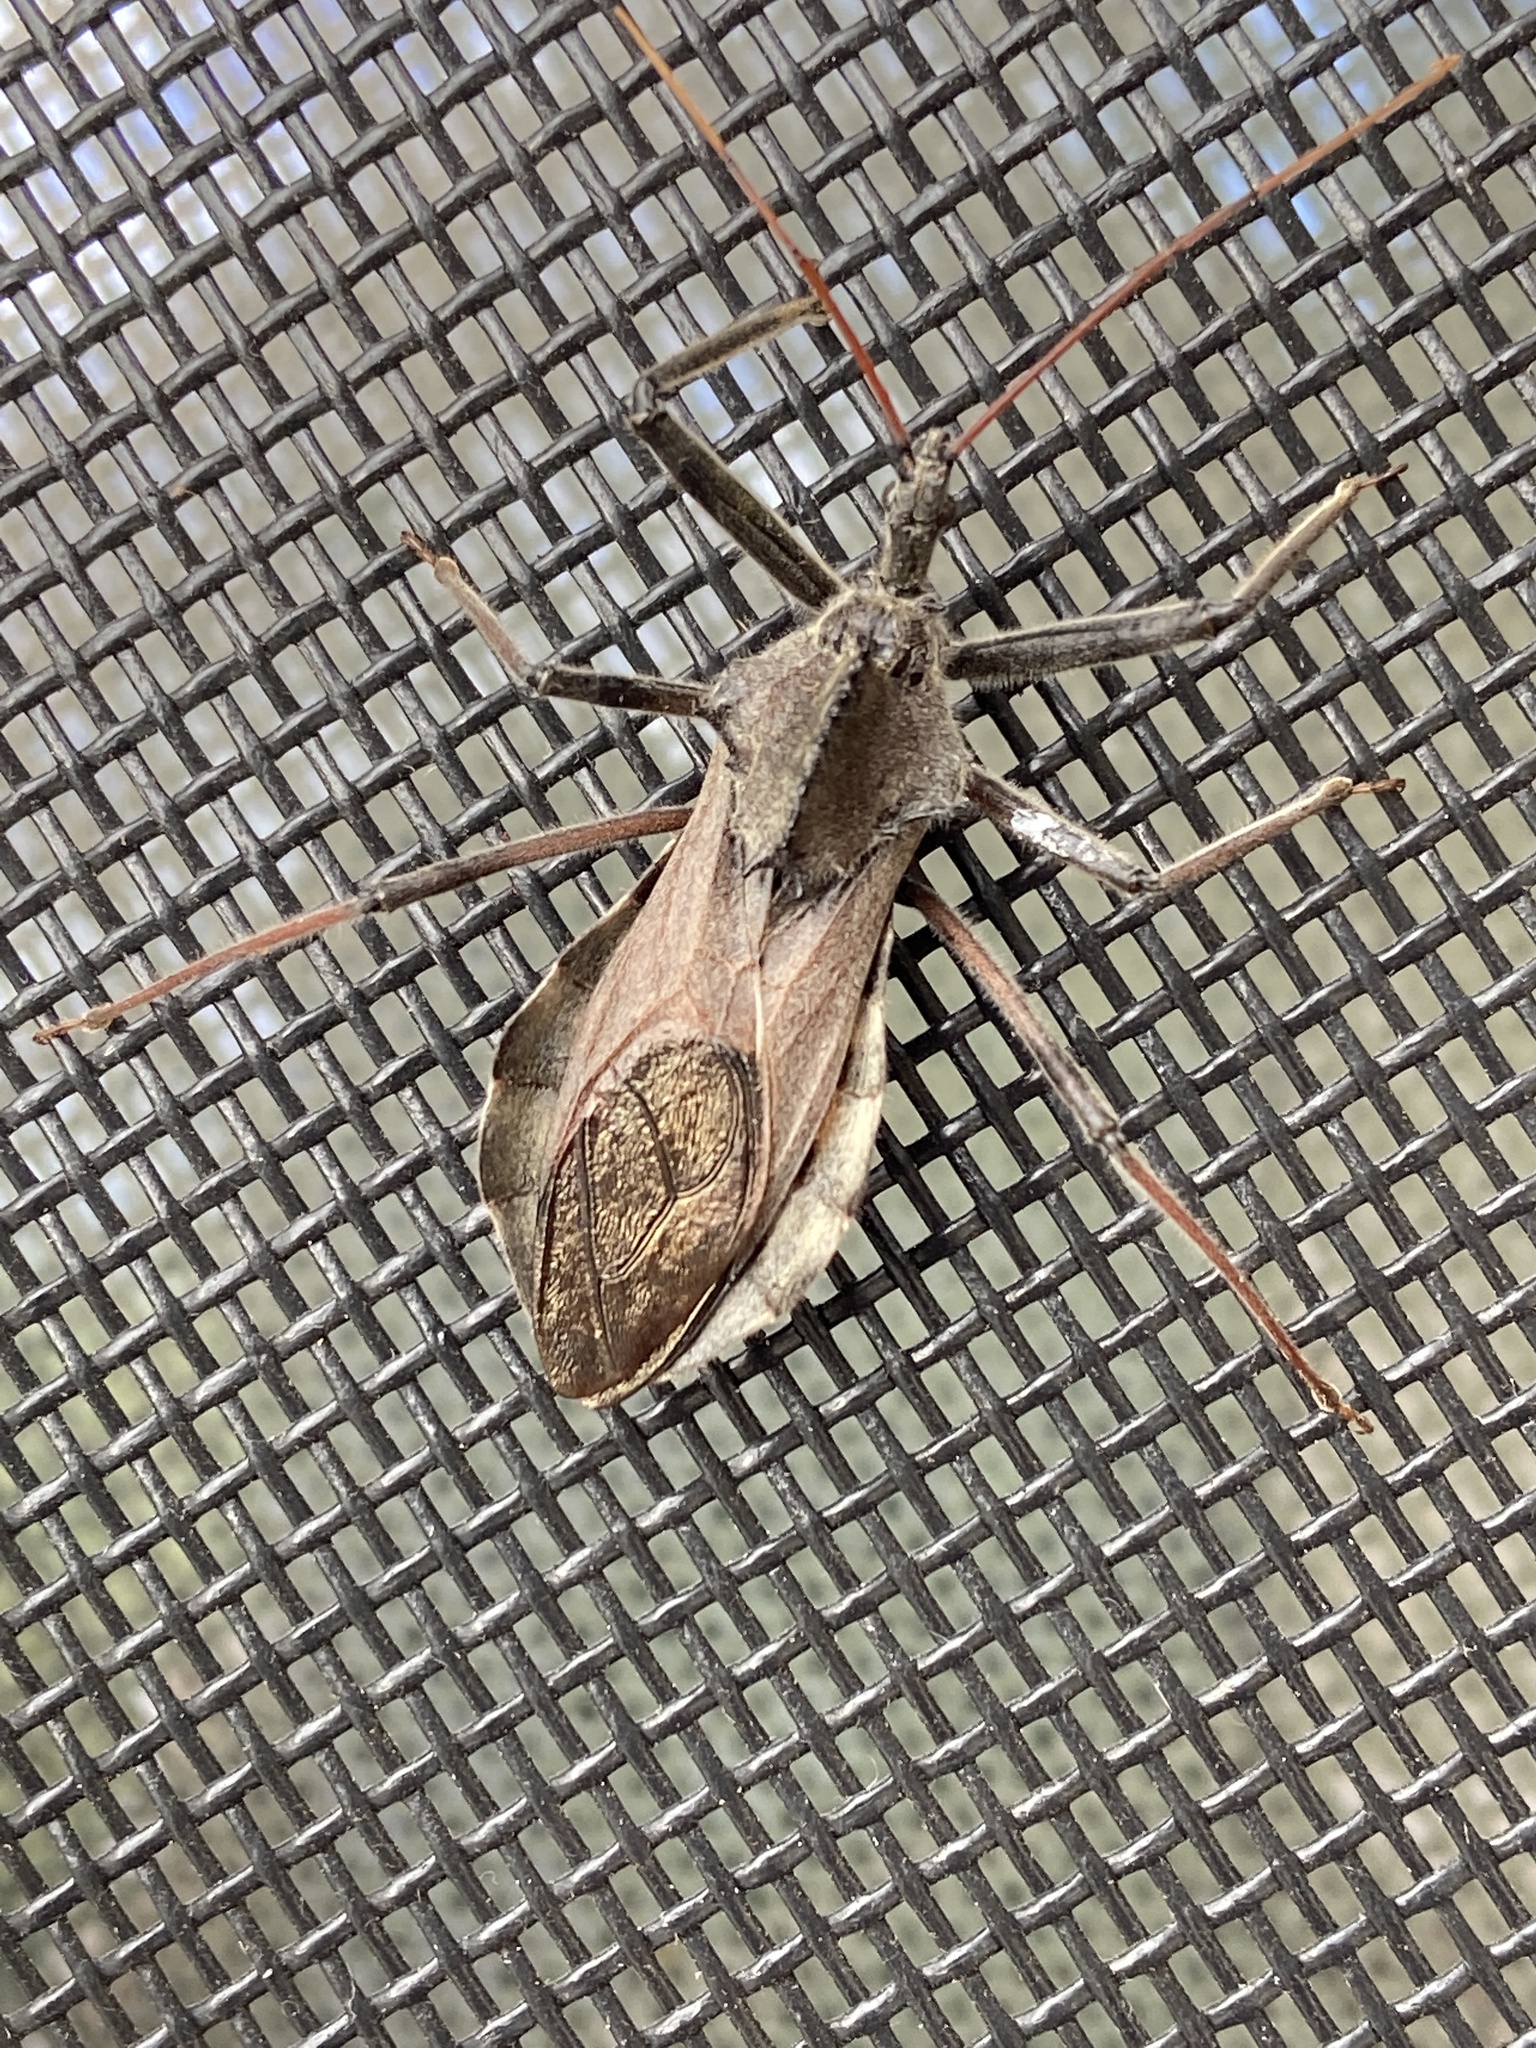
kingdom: Animalia
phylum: Arthropoda
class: Insecta
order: Hemiptera
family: Reduviidae
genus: Arilus
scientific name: Arilus cristatus
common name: North american wheel bug
